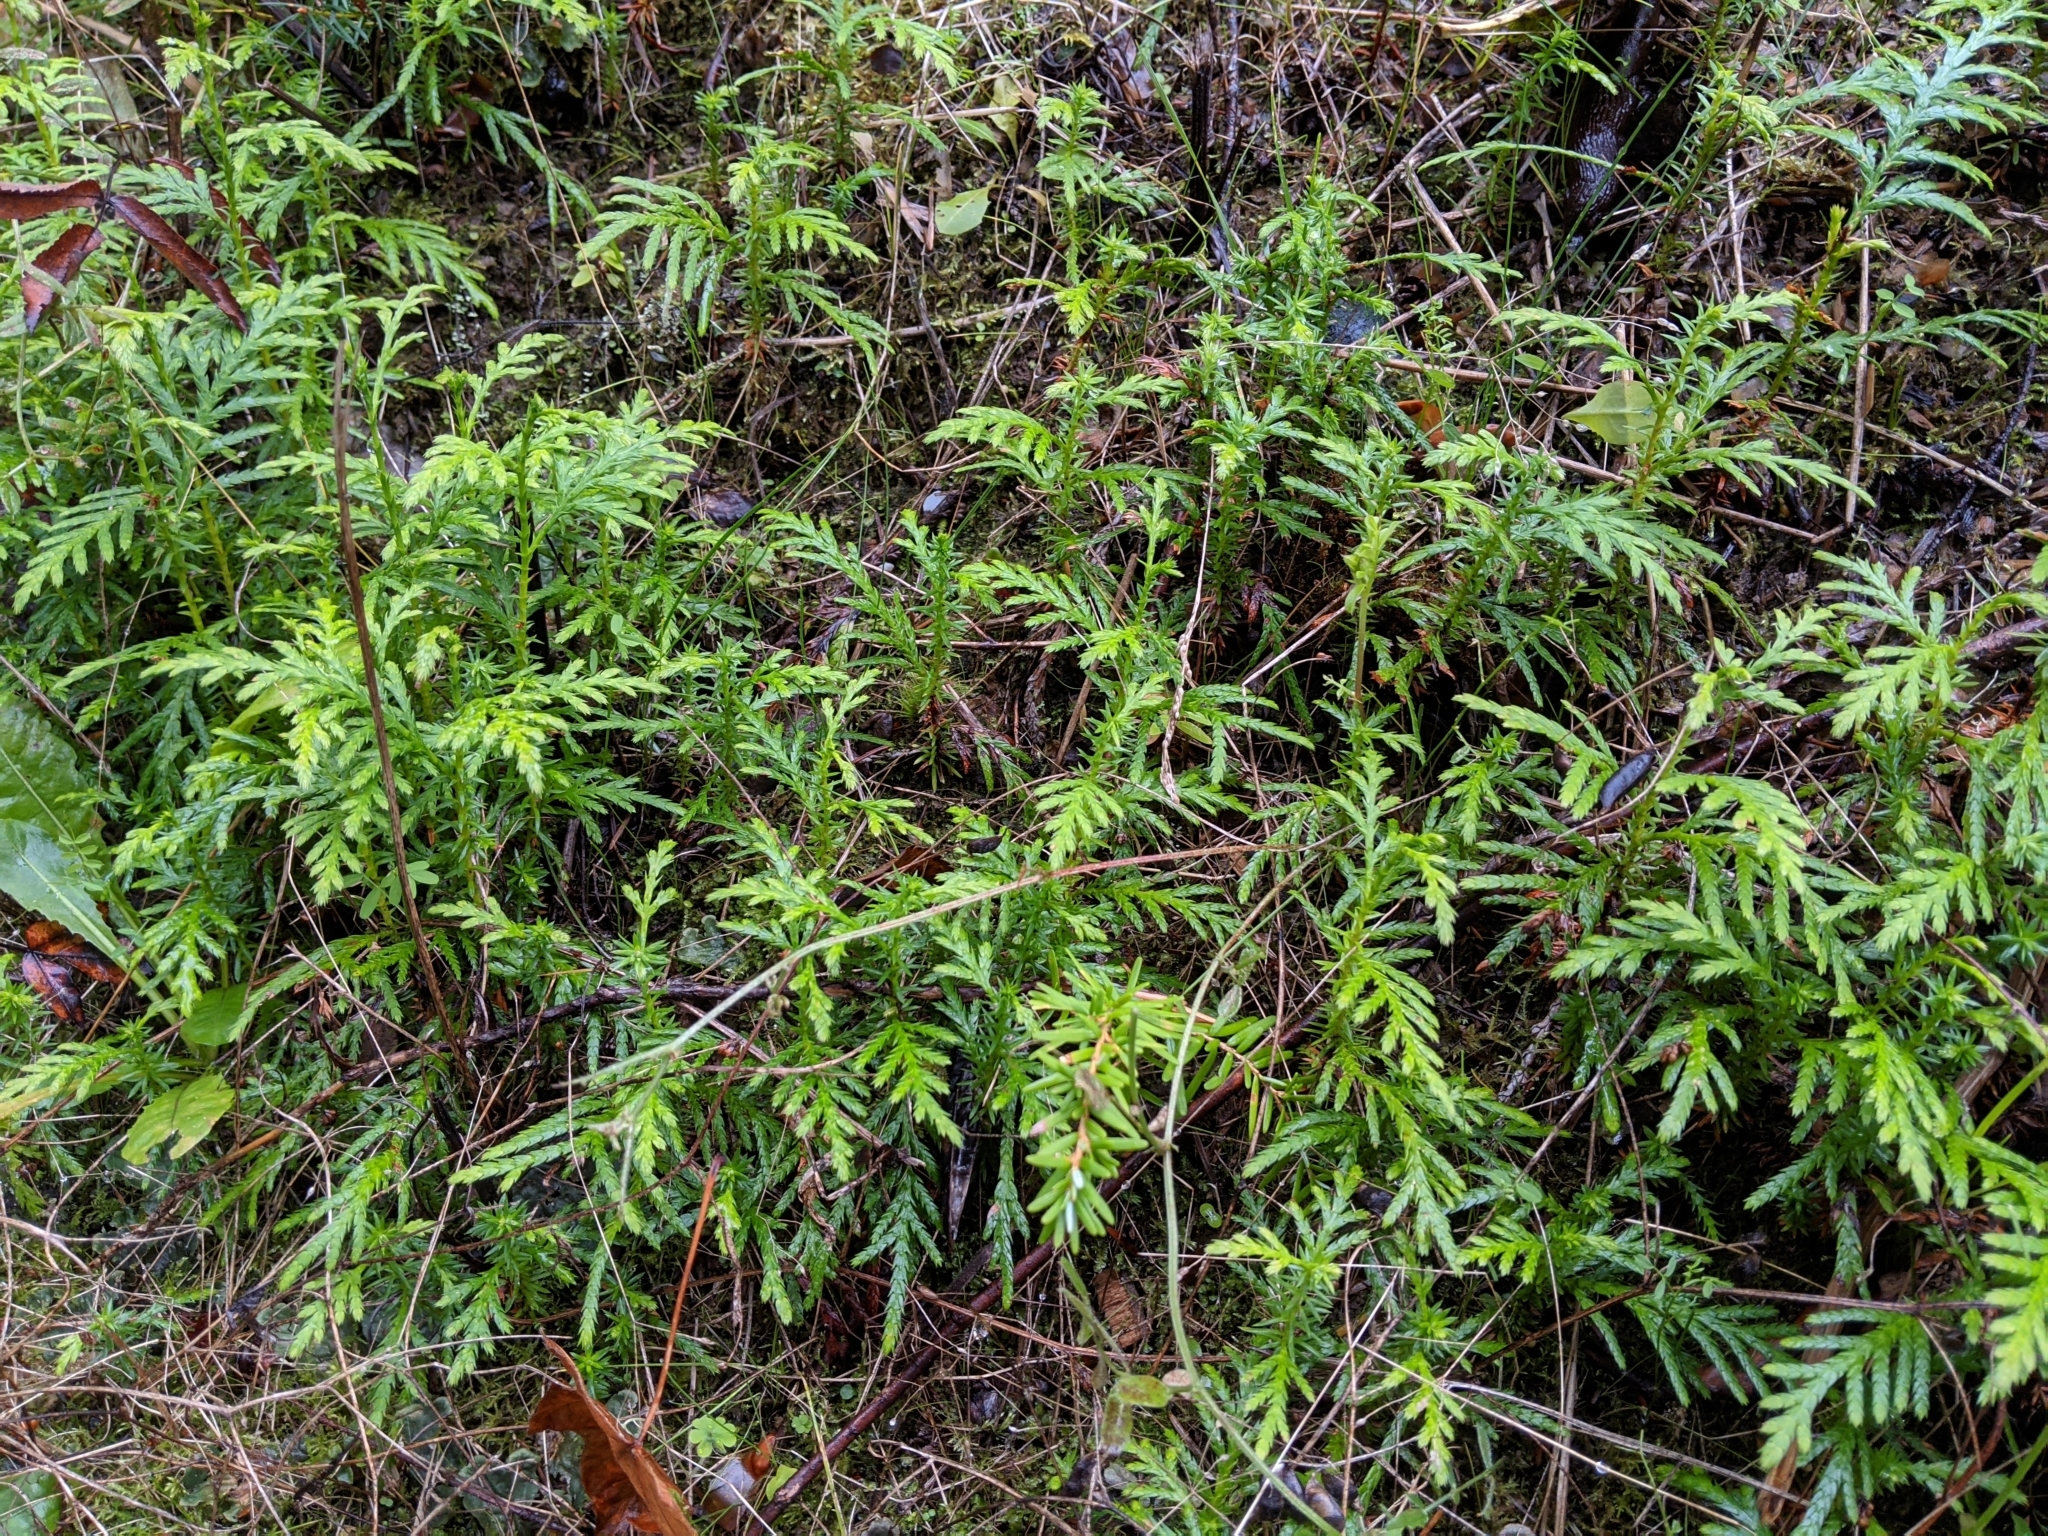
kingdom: Plantae
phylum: Tracheophyta
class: Pinopsida
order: Pinales
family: Cupressaceae
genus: Thuja
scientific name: Thuja plicata
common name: Western red-cedar
